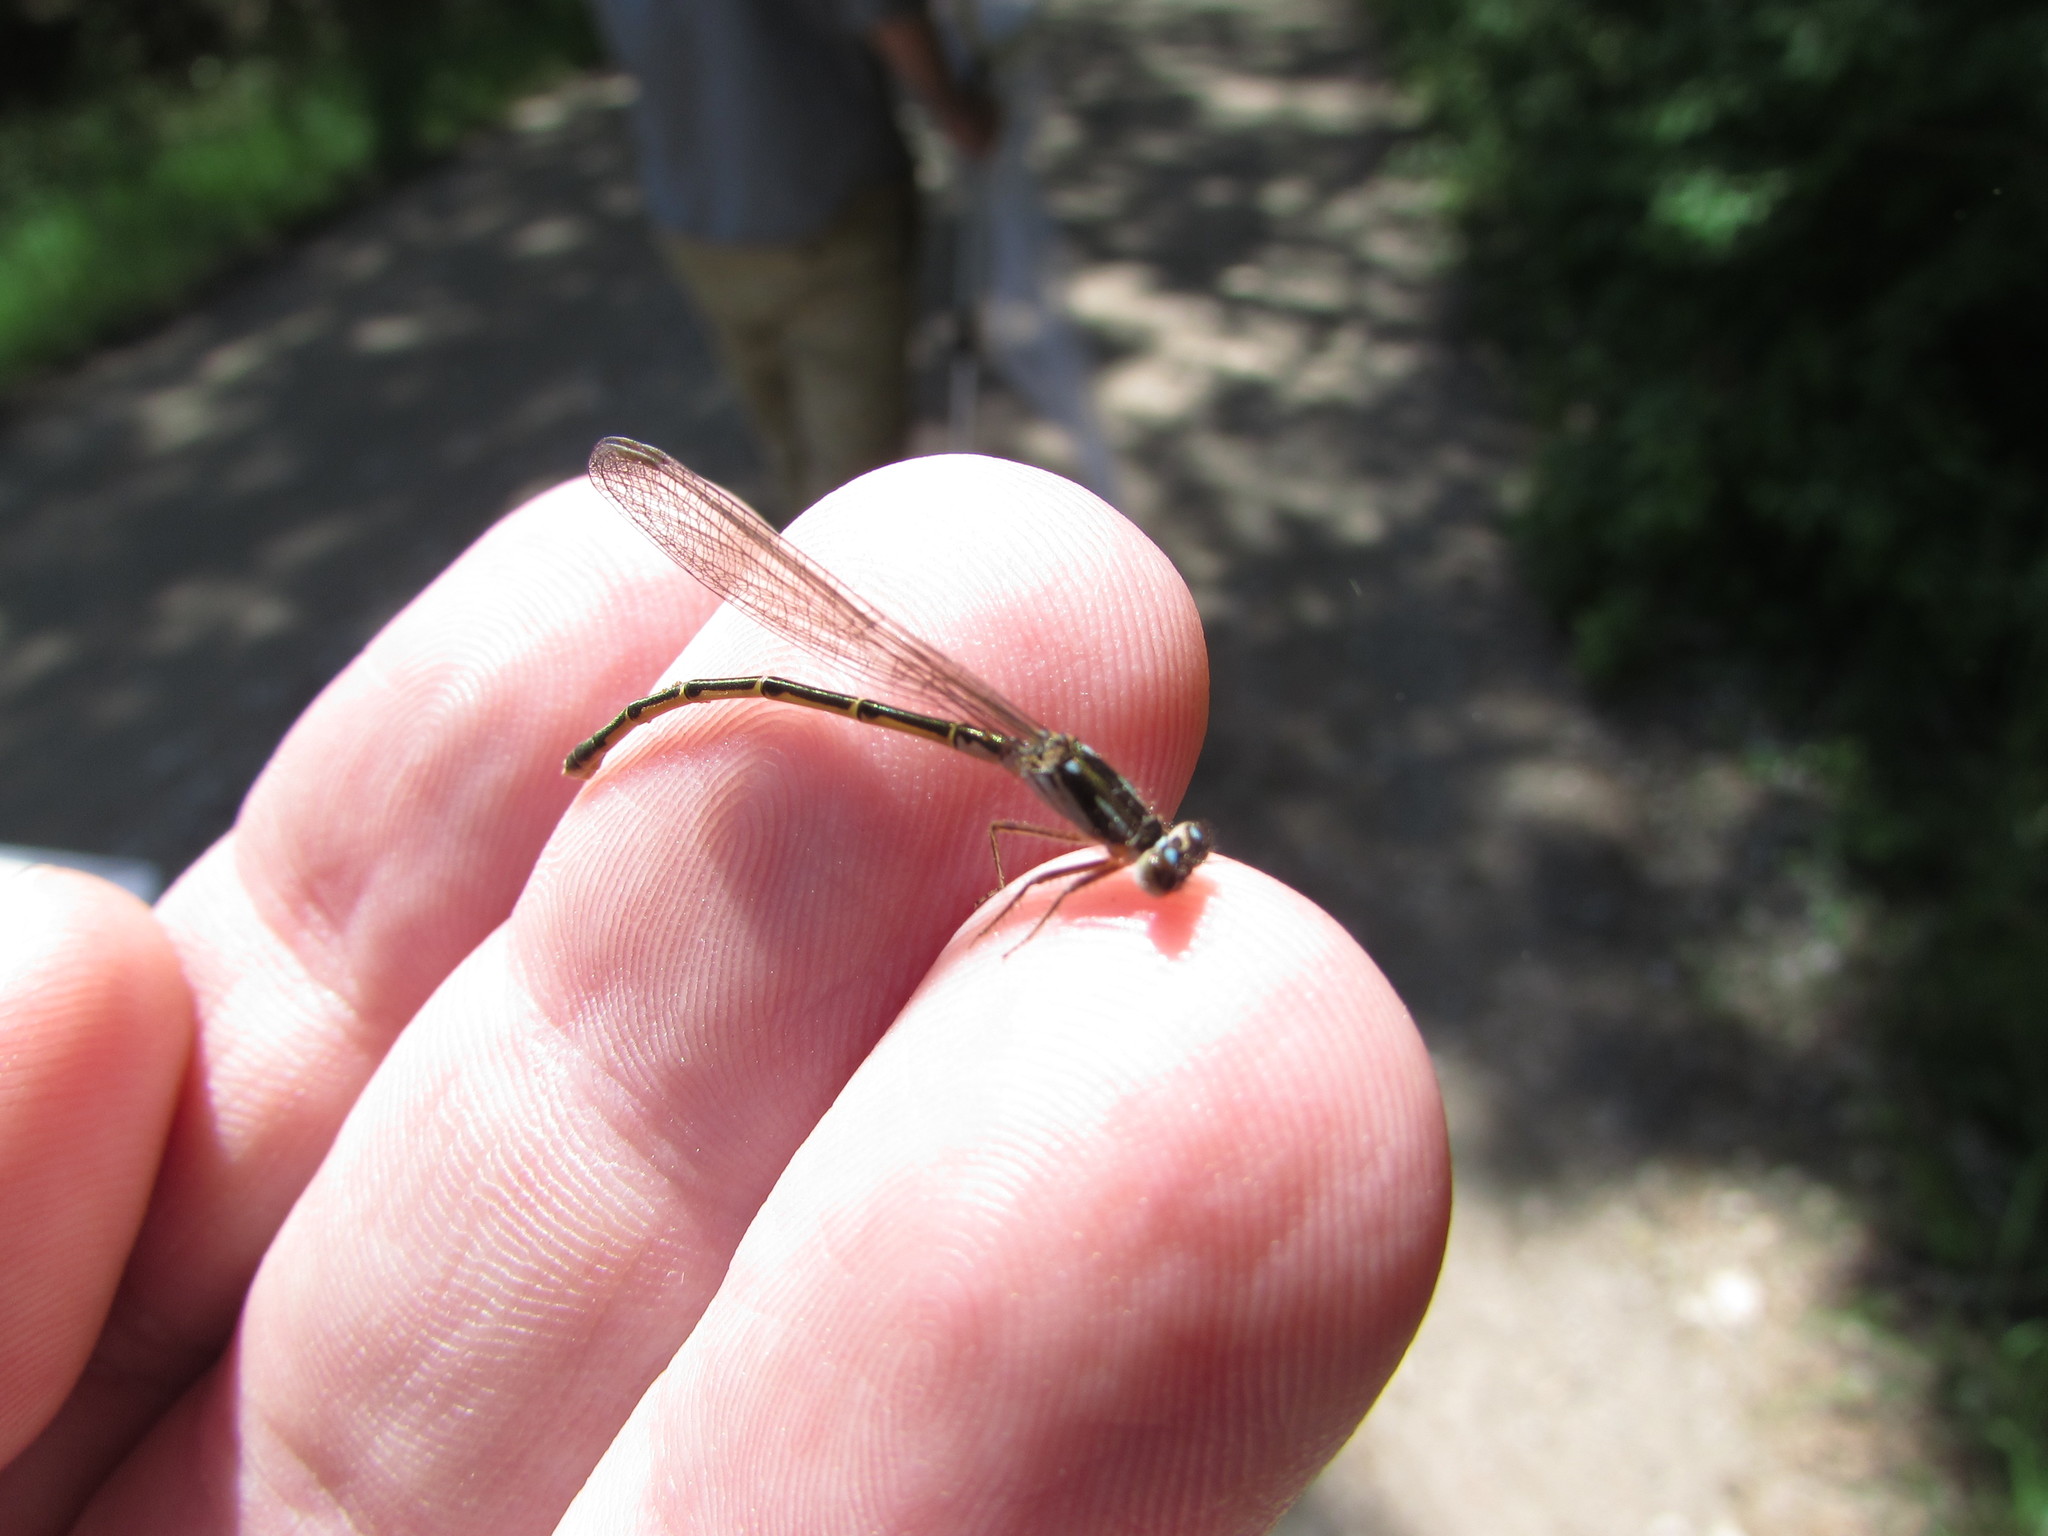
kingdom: Animalia
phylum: Arthropoda
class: Insecta
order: Odonata
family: Coenagrionidae
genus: Ischnura
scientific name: Ischnura posita
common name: Fragile forktail
